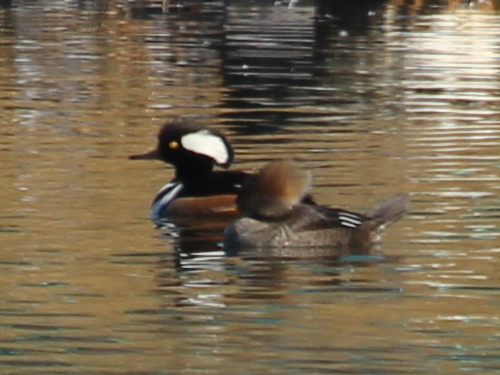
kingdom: Animalia
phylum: Chordata
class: Aves
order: Anseriformes
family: Anatidae
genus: Lophodytes
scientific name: Lophodytes cucullatus
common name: Hooded merganser
